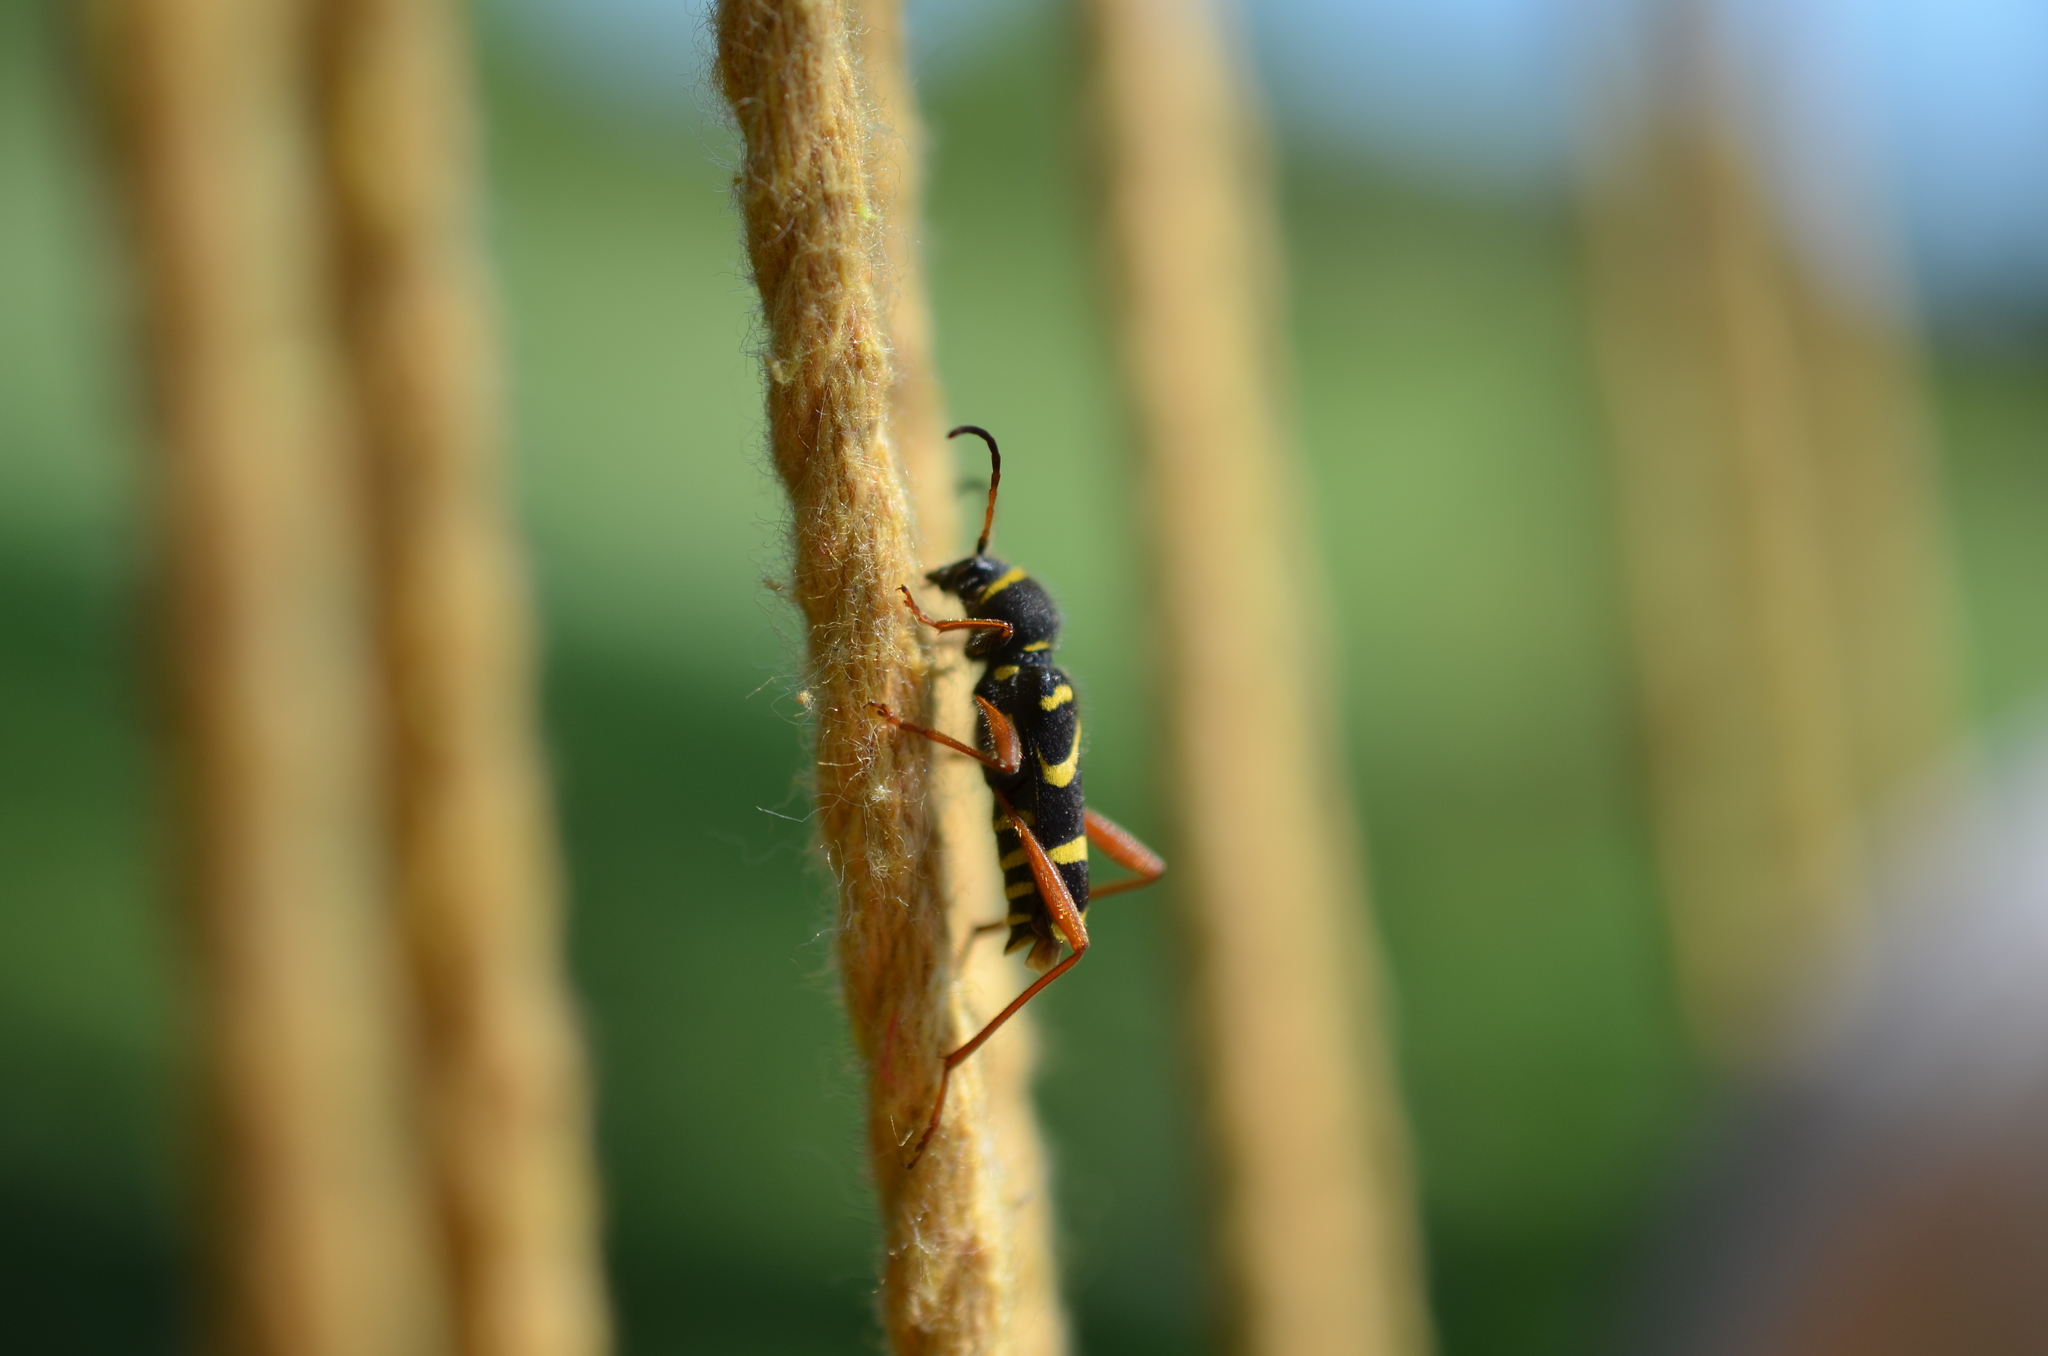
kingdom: Animalia
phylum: Arthropoda
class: Insecta
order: Coleoptera
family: Cerambycidae
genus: Clytus
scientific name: Clytus arietis
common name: Wasp beetle
